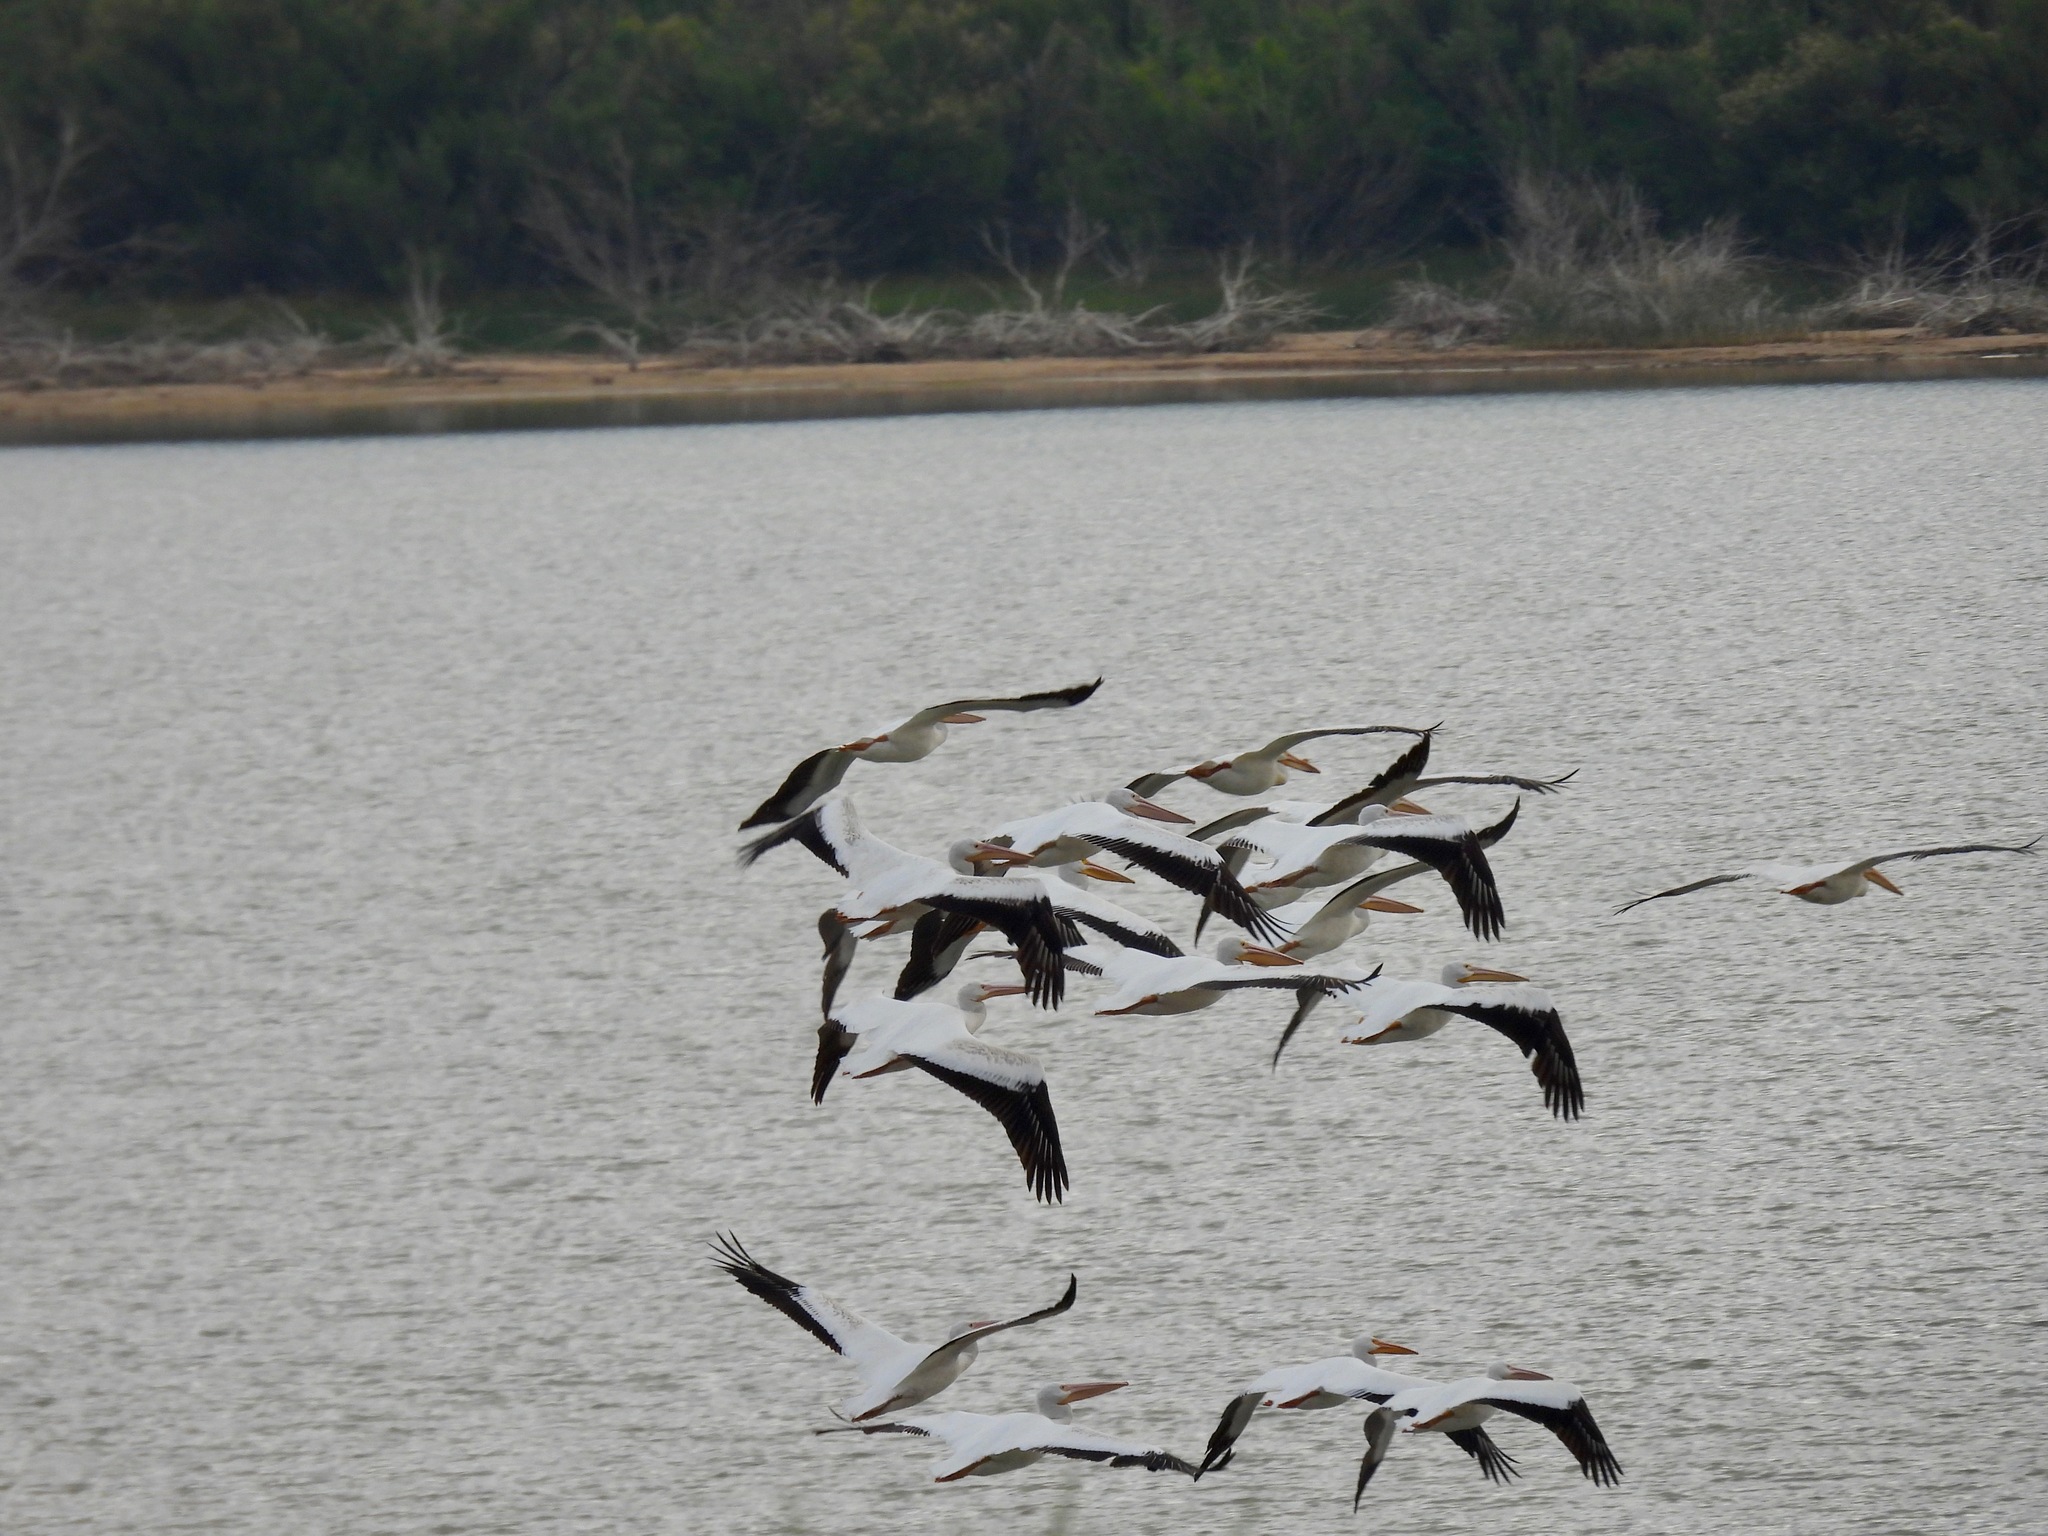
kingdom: Animalia
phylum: Chordata
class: Aves
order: Pelecaniformes
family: Pelecanidae
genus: Pelecanus
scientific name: Pelecanus erythrorhynchos
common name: American white pelican
